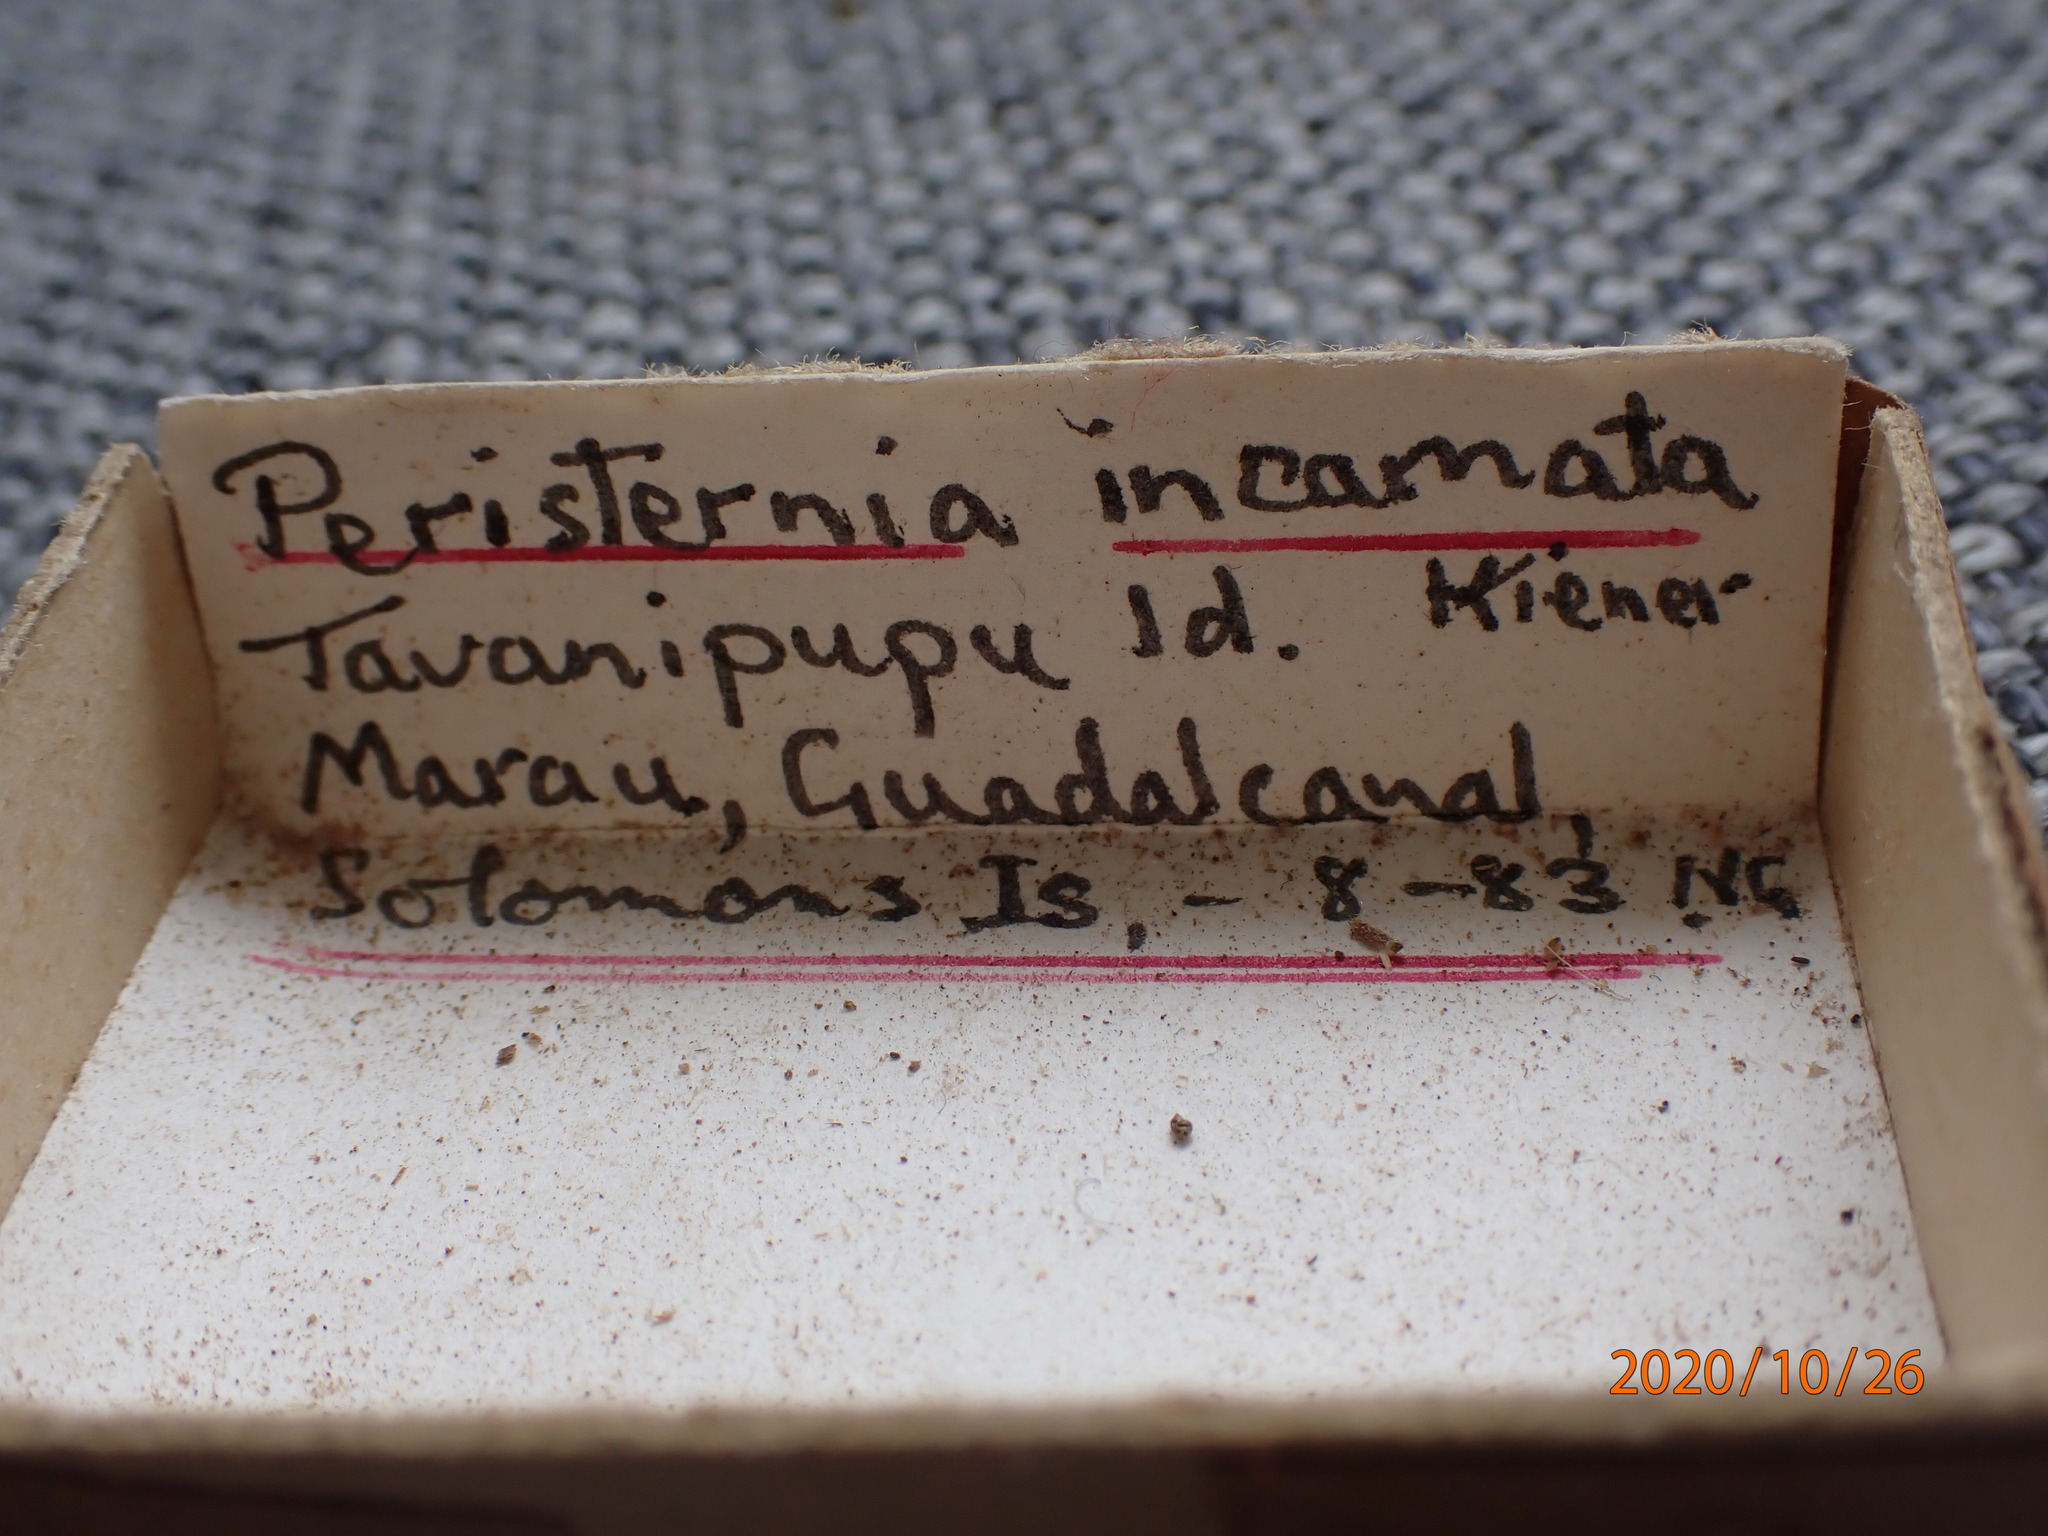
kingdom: Animalia
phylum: Mollusca
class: Gastropoda
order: Neogastropoda
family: Fasciolariidae
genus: Peristernia
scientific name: Peristernia reincarnata
